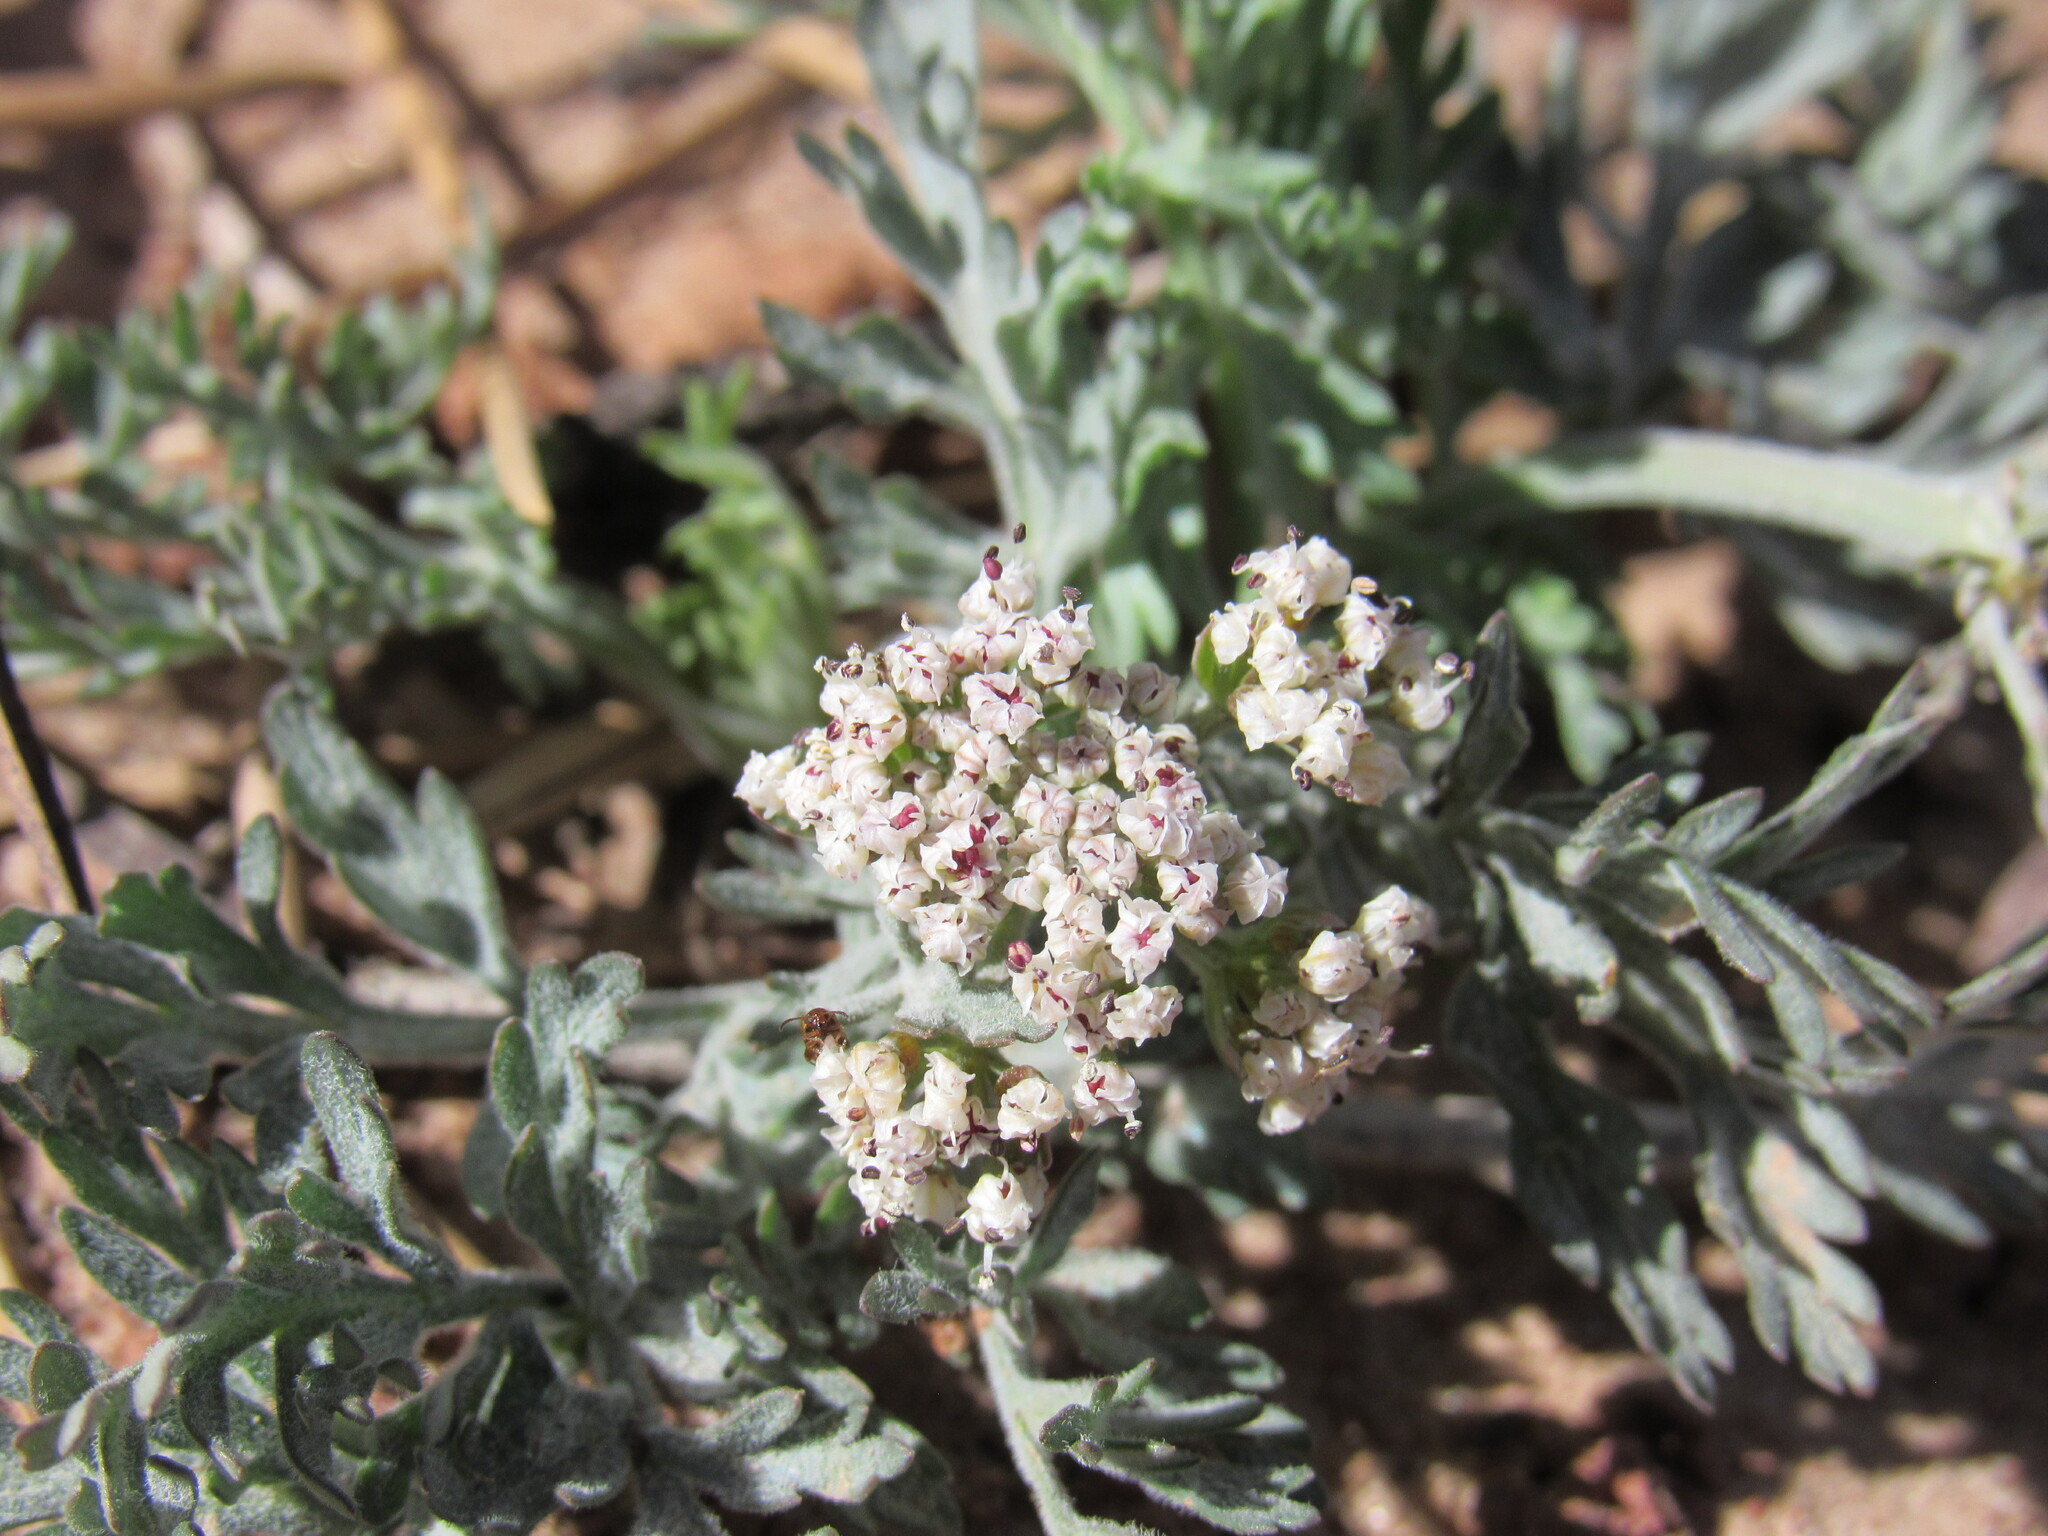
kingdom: Plantae
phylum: Tracheophyta
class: Magnoliopsida
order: Apiales
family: Apiaceae
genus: Lomatium
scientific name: Lomatium orientale
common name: Eastern cous
